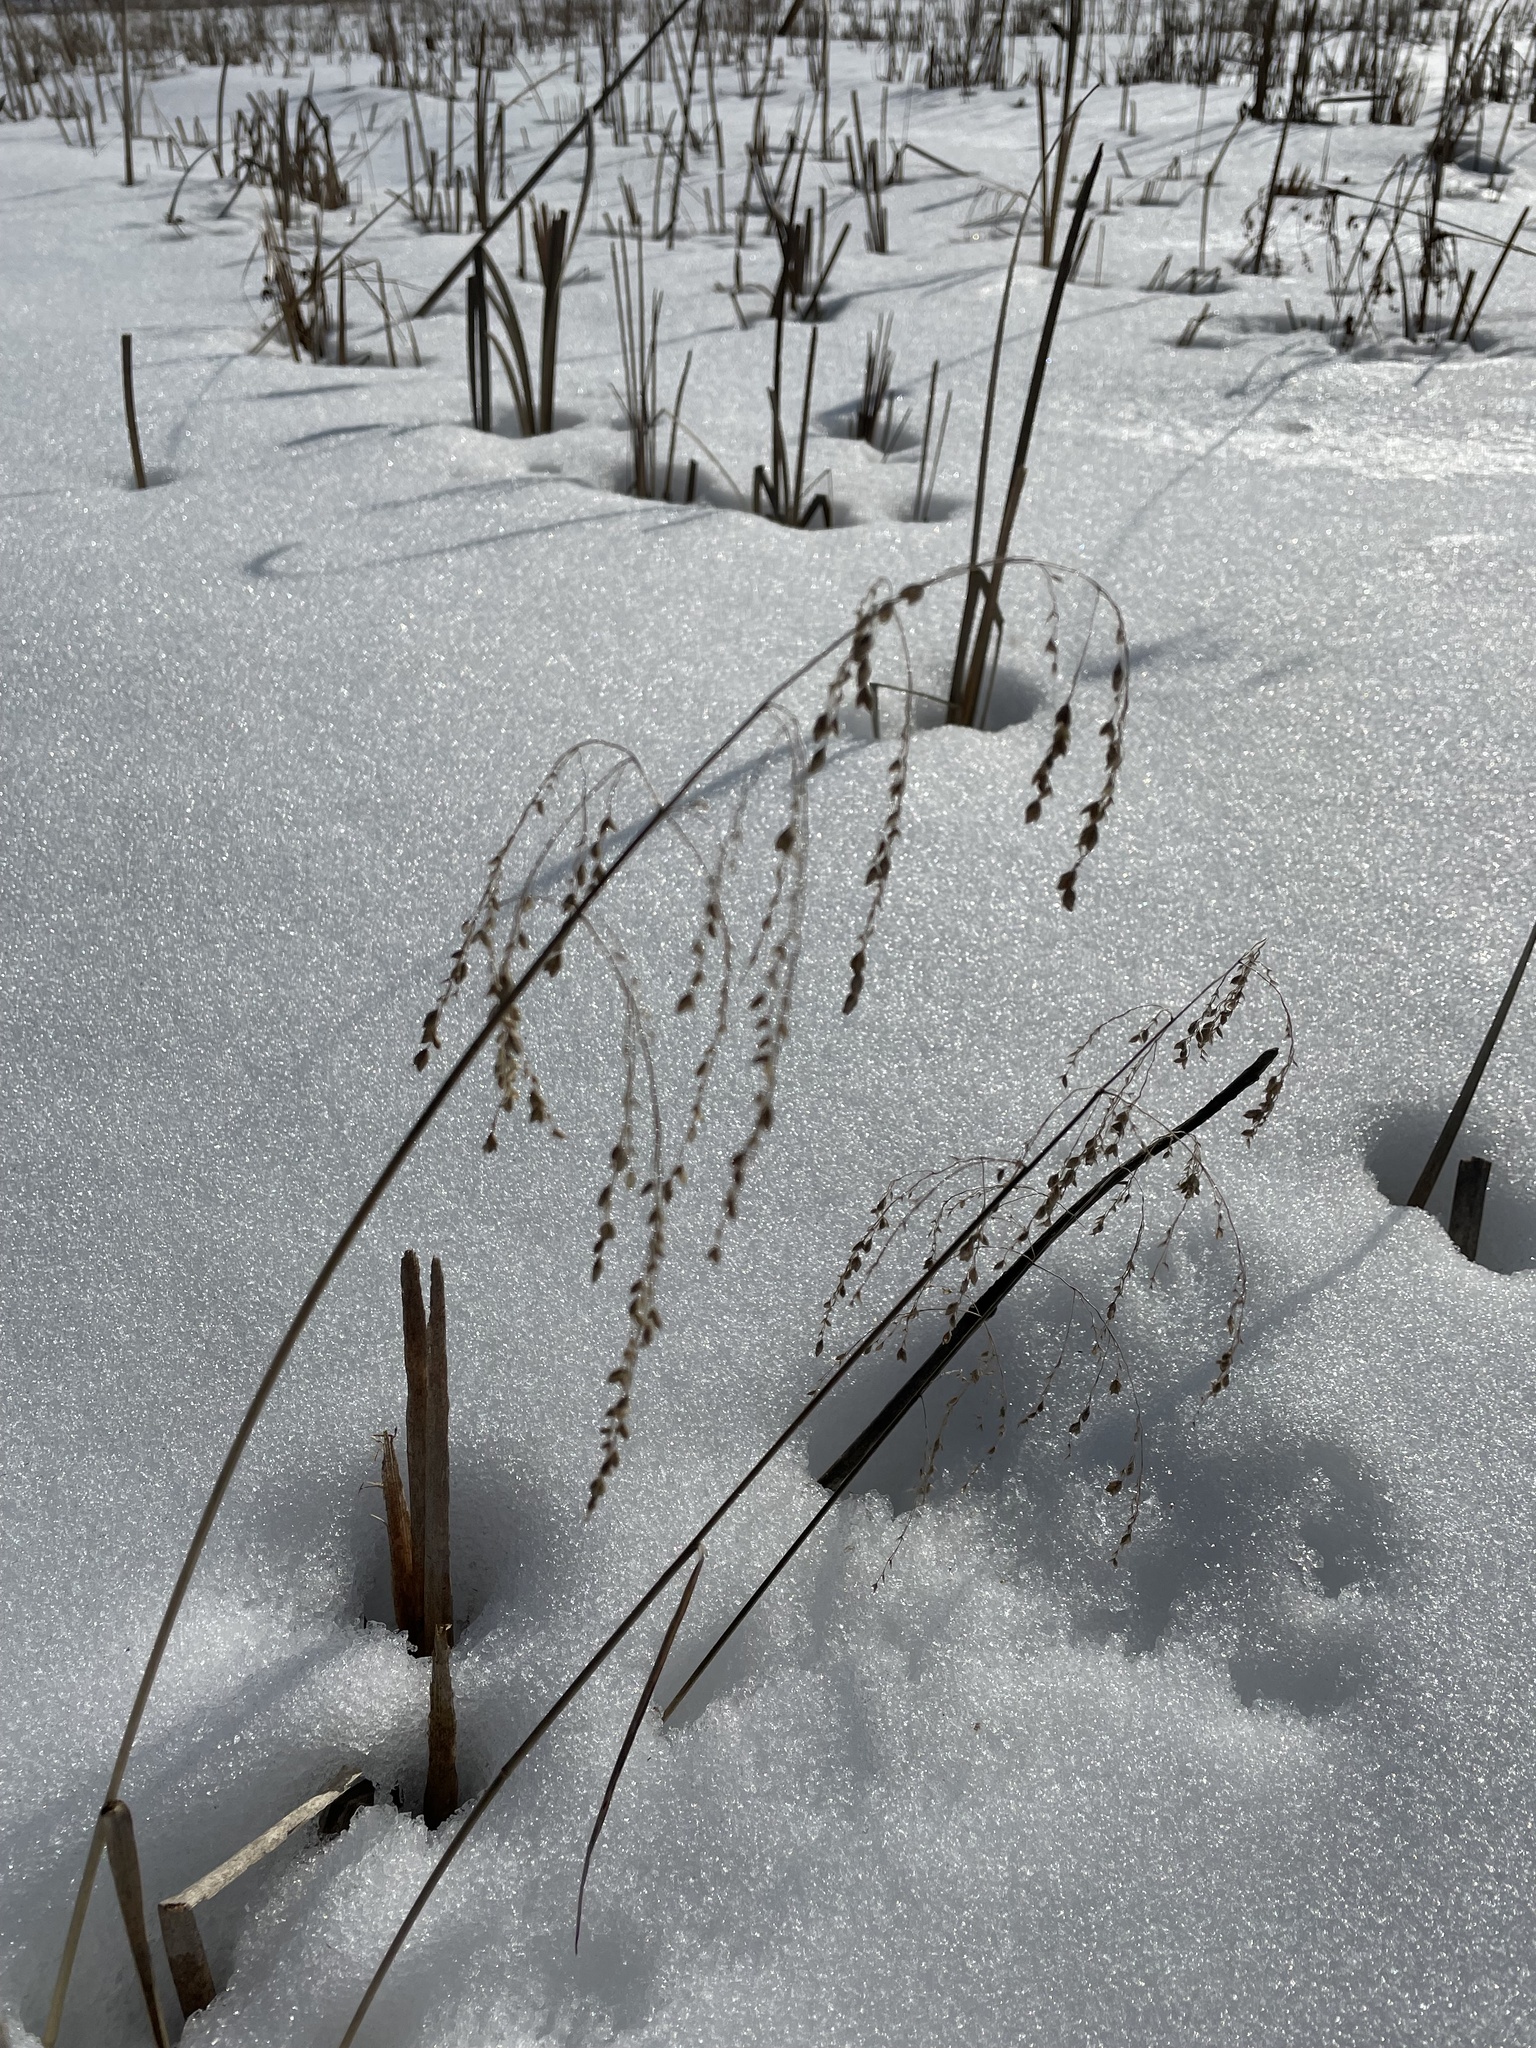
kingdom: Plantae
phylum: Tracheophyta
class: Liliopsida
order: Poales
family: Poaceae
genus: Glyceria
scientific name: Glyceria canadensis
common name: Canada mannagrass
